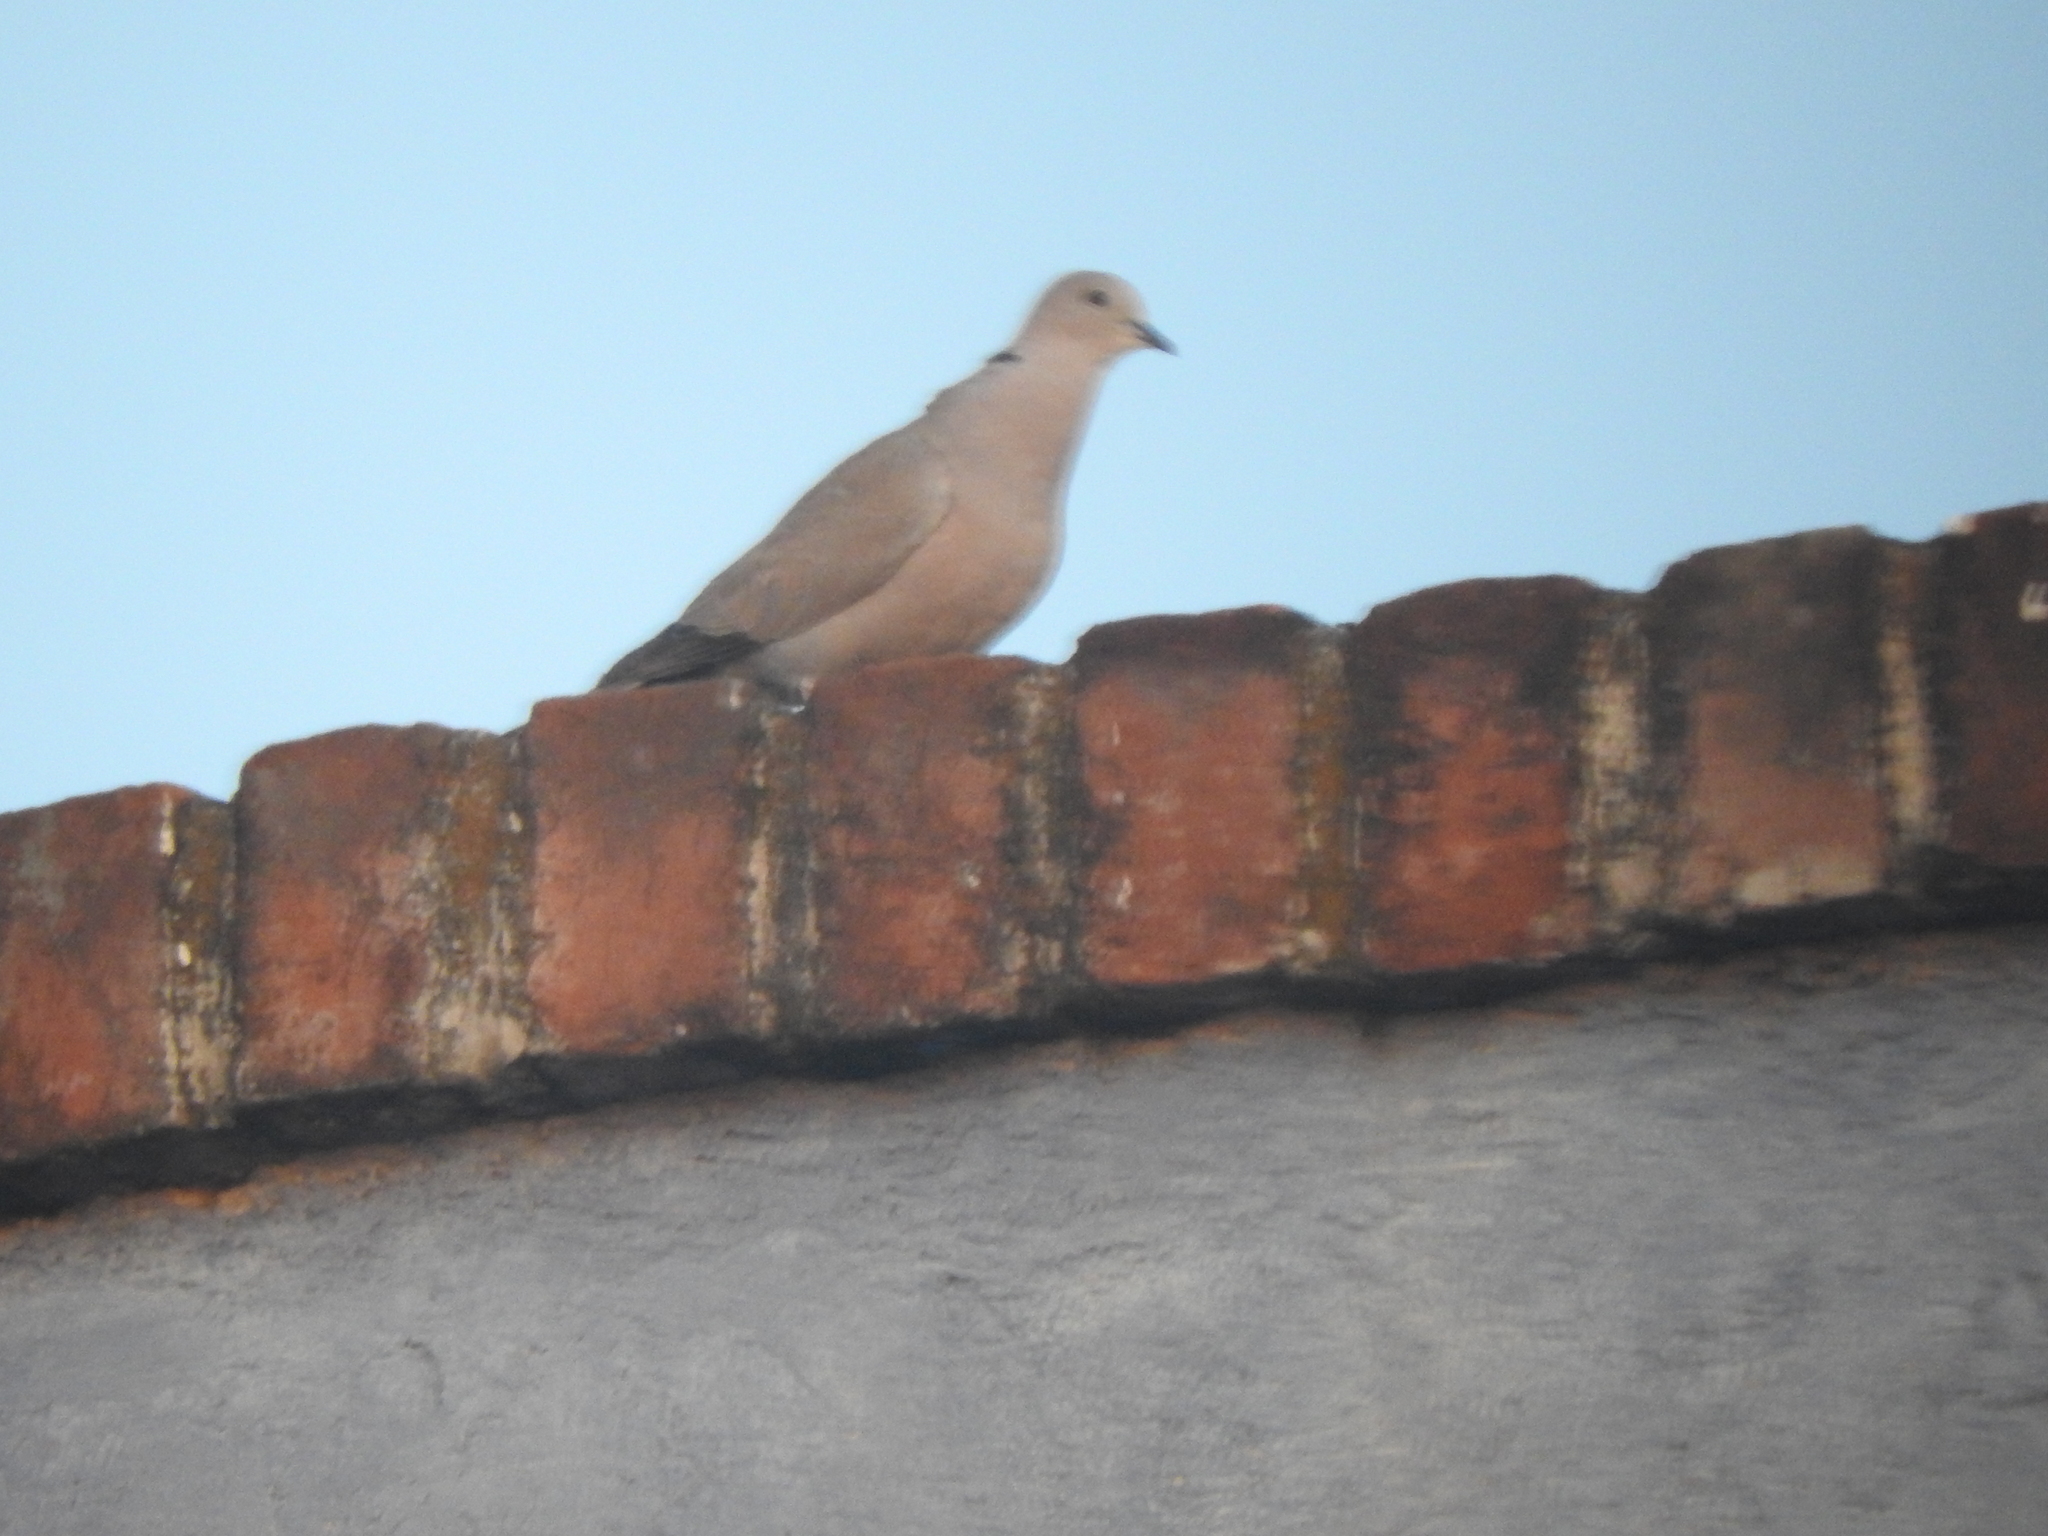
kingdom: Animalia
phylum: Chordata
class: Aves
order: Columbiformes
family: Columbidae
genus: Streptopelia
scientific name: Streptopelia decaocto
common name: Eurasian collared dove
